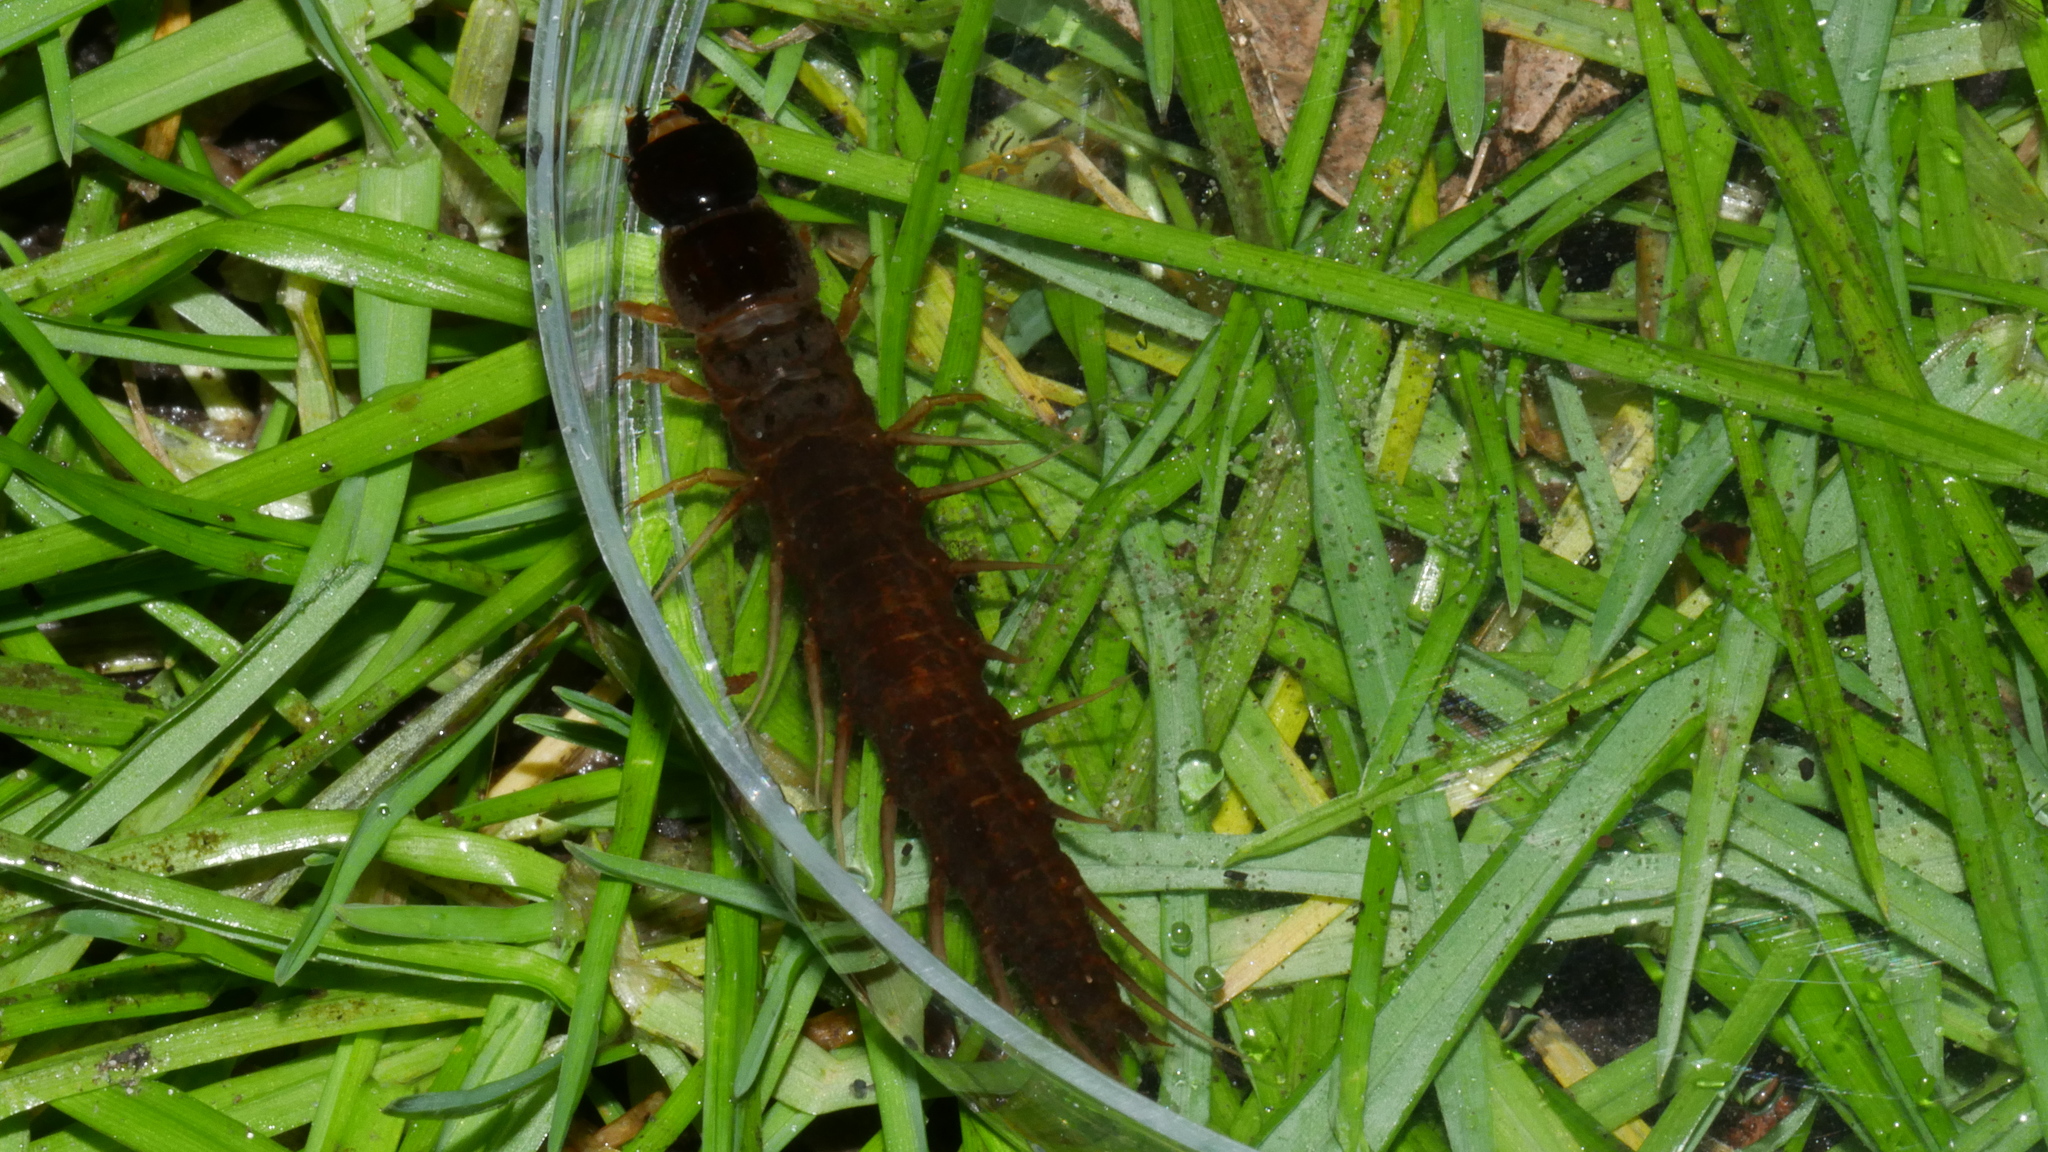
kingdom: Animalia
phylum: Arthropoda
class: Insecta
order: Megaloptera
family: Corydalidae
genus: Nigronia
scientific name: Nigronia serricornis
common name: Serrate dark fishfly
